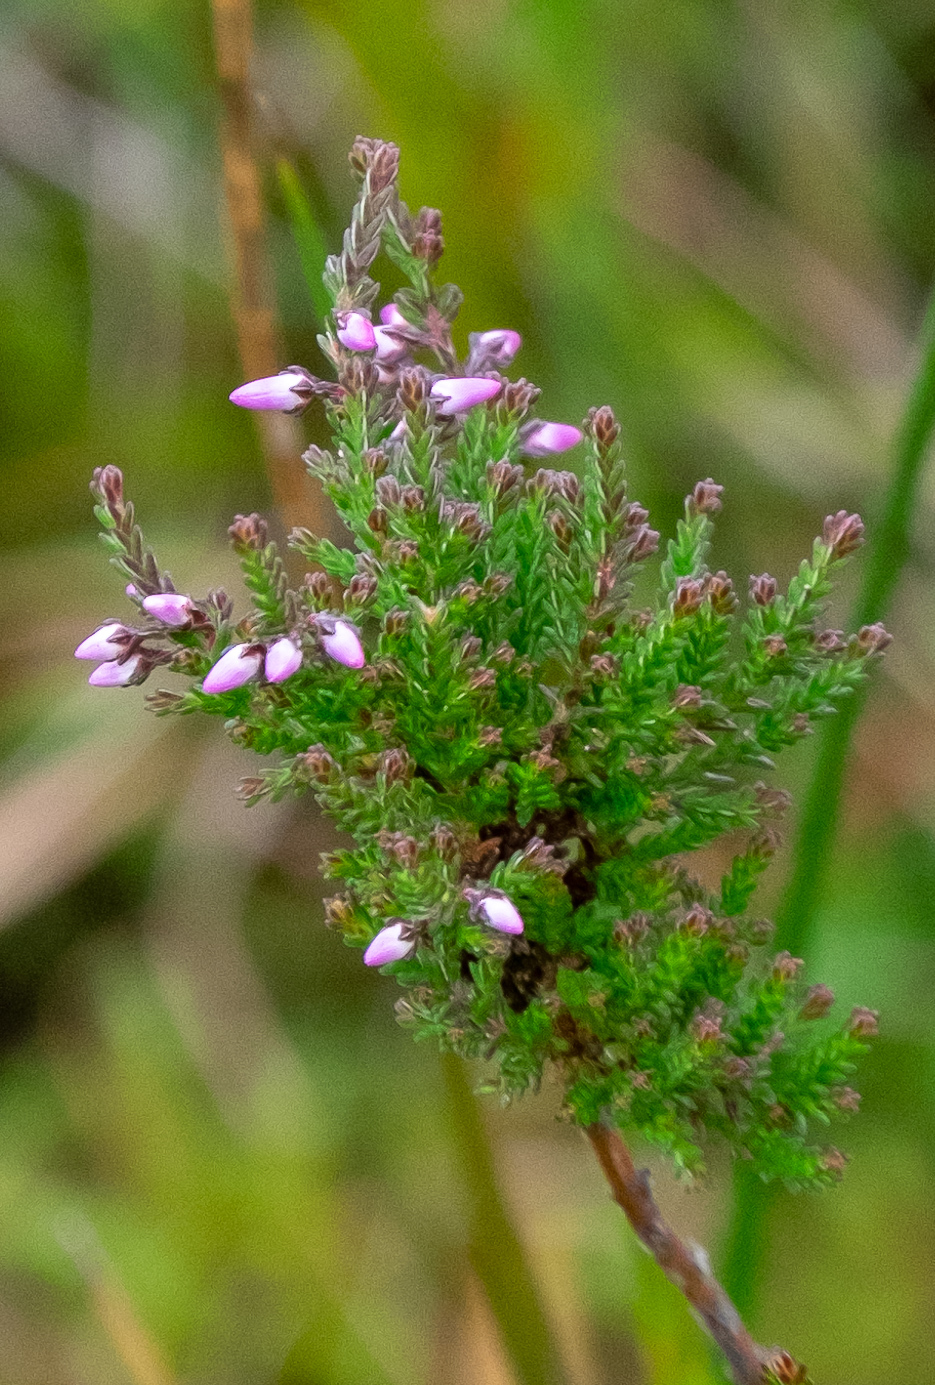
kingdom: Plantae
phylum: Tracheophyta
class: Magnoliopsida
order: Ericales
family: Ericaceae
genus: Calluna
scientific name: Calluna vulgaris
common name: Heather
